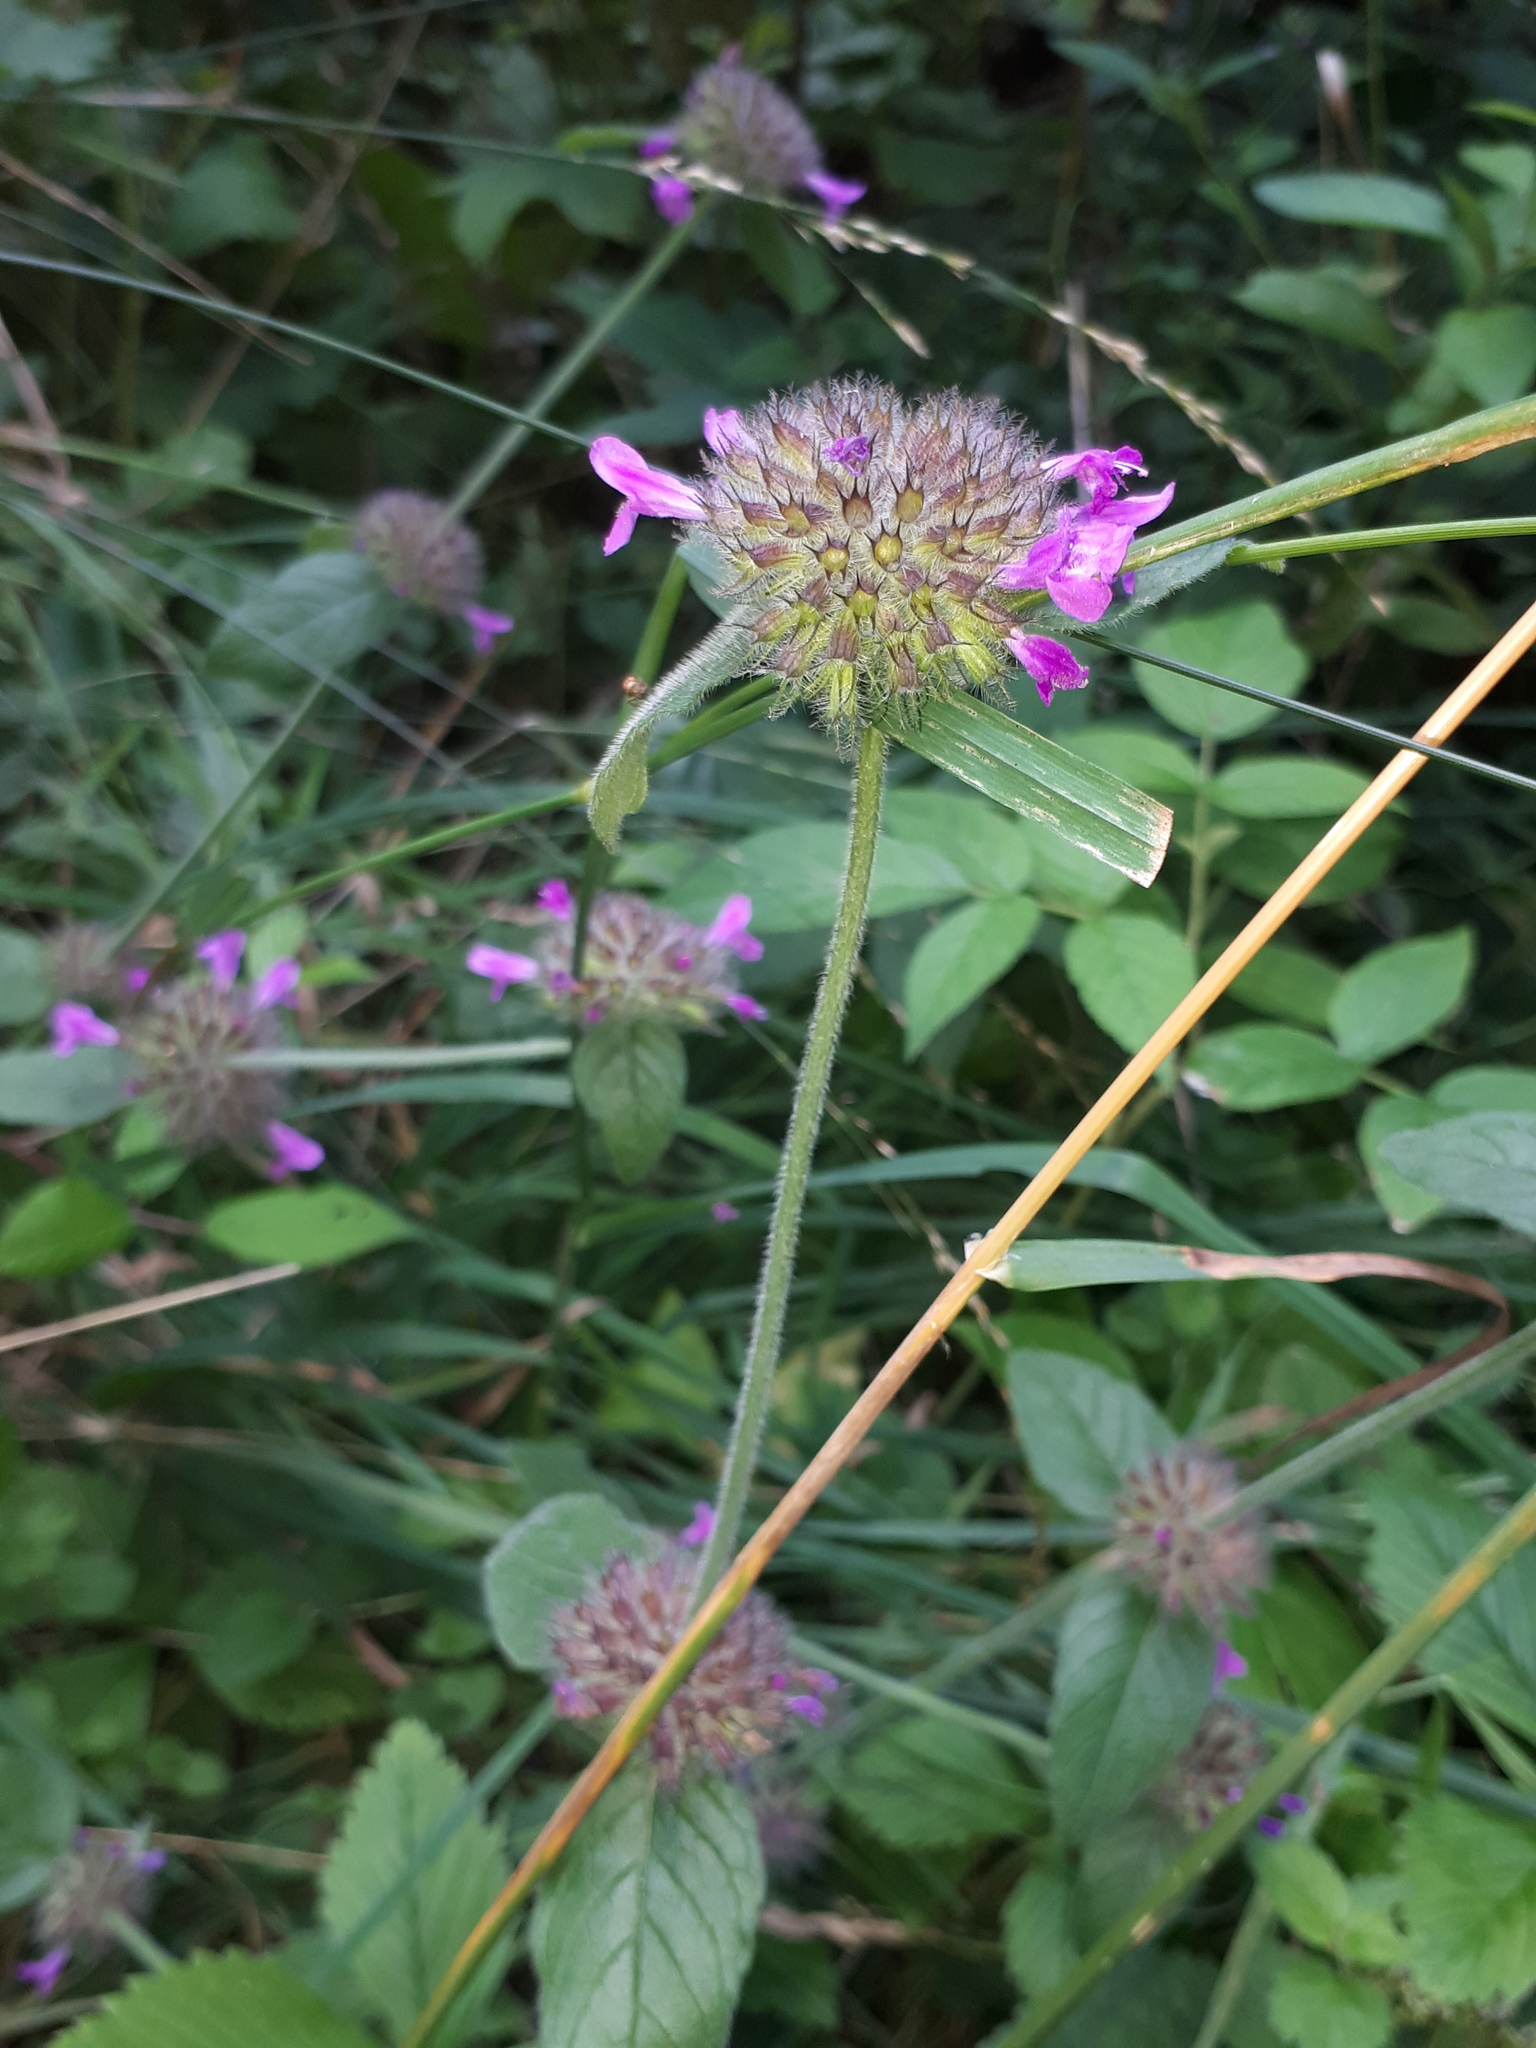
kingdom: Plantae
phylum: Tracheophyta
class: Magnoliopsida
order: Lamiales
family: Lamiaceae
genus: Clinopodium
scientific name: Clinopodium vulgare
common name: Wild basil
